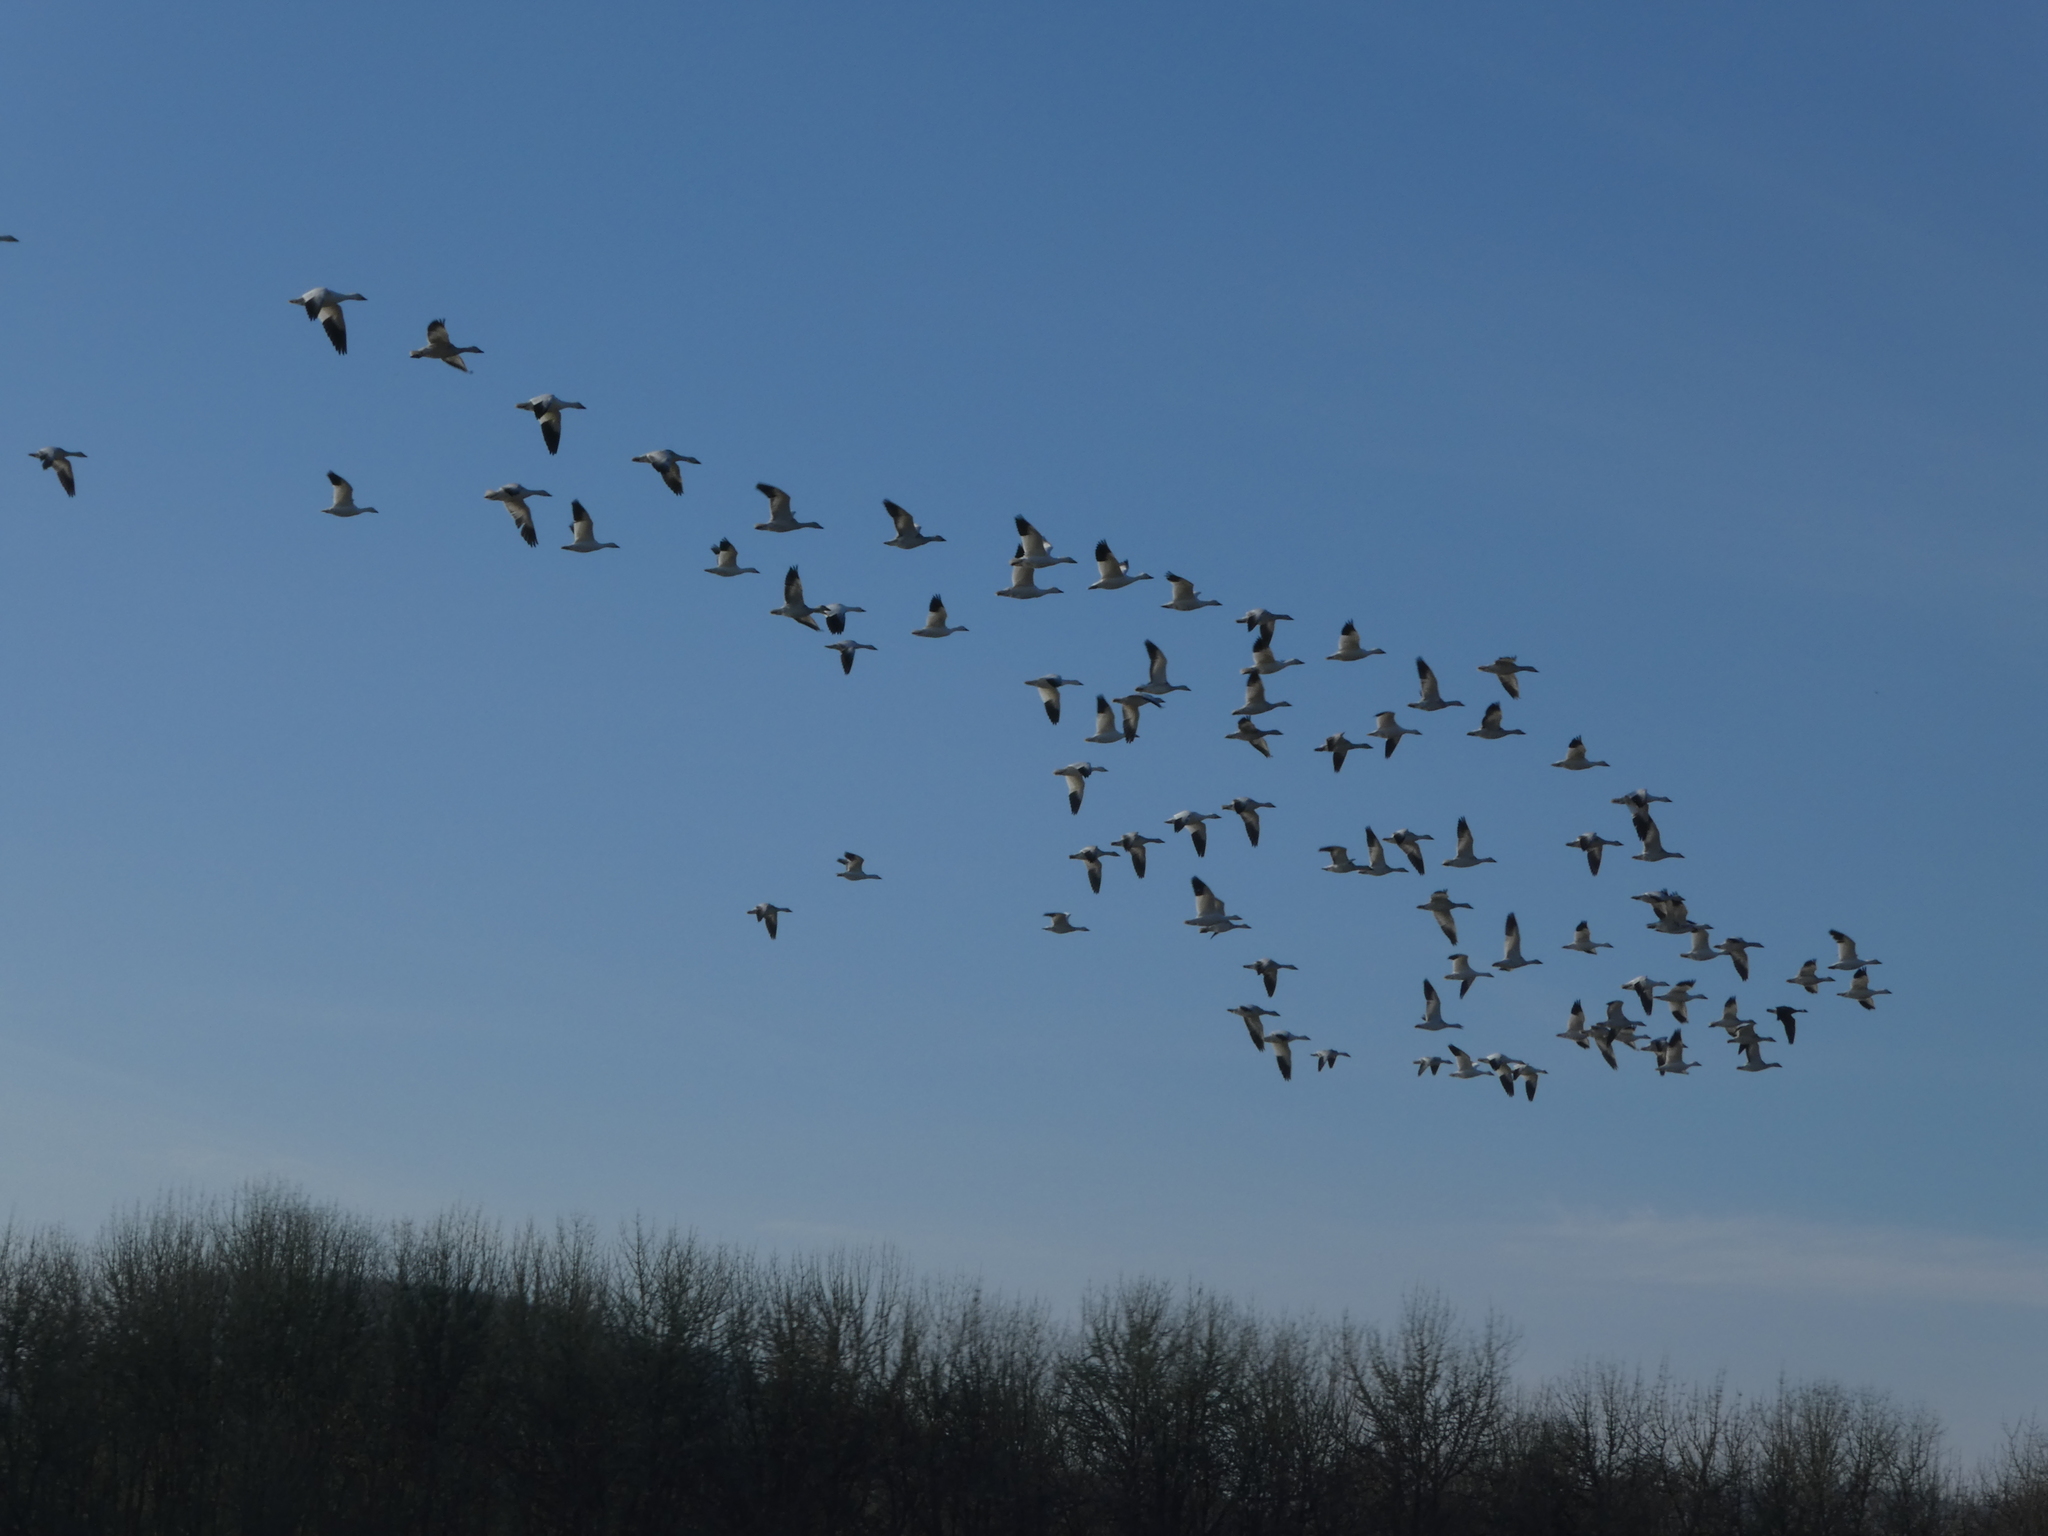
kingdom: Animalia
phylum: Chordata
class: Aves
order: Anseriformes
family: Anatidae
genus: Anser
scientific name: Anser caerulescens
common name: Snow goose
